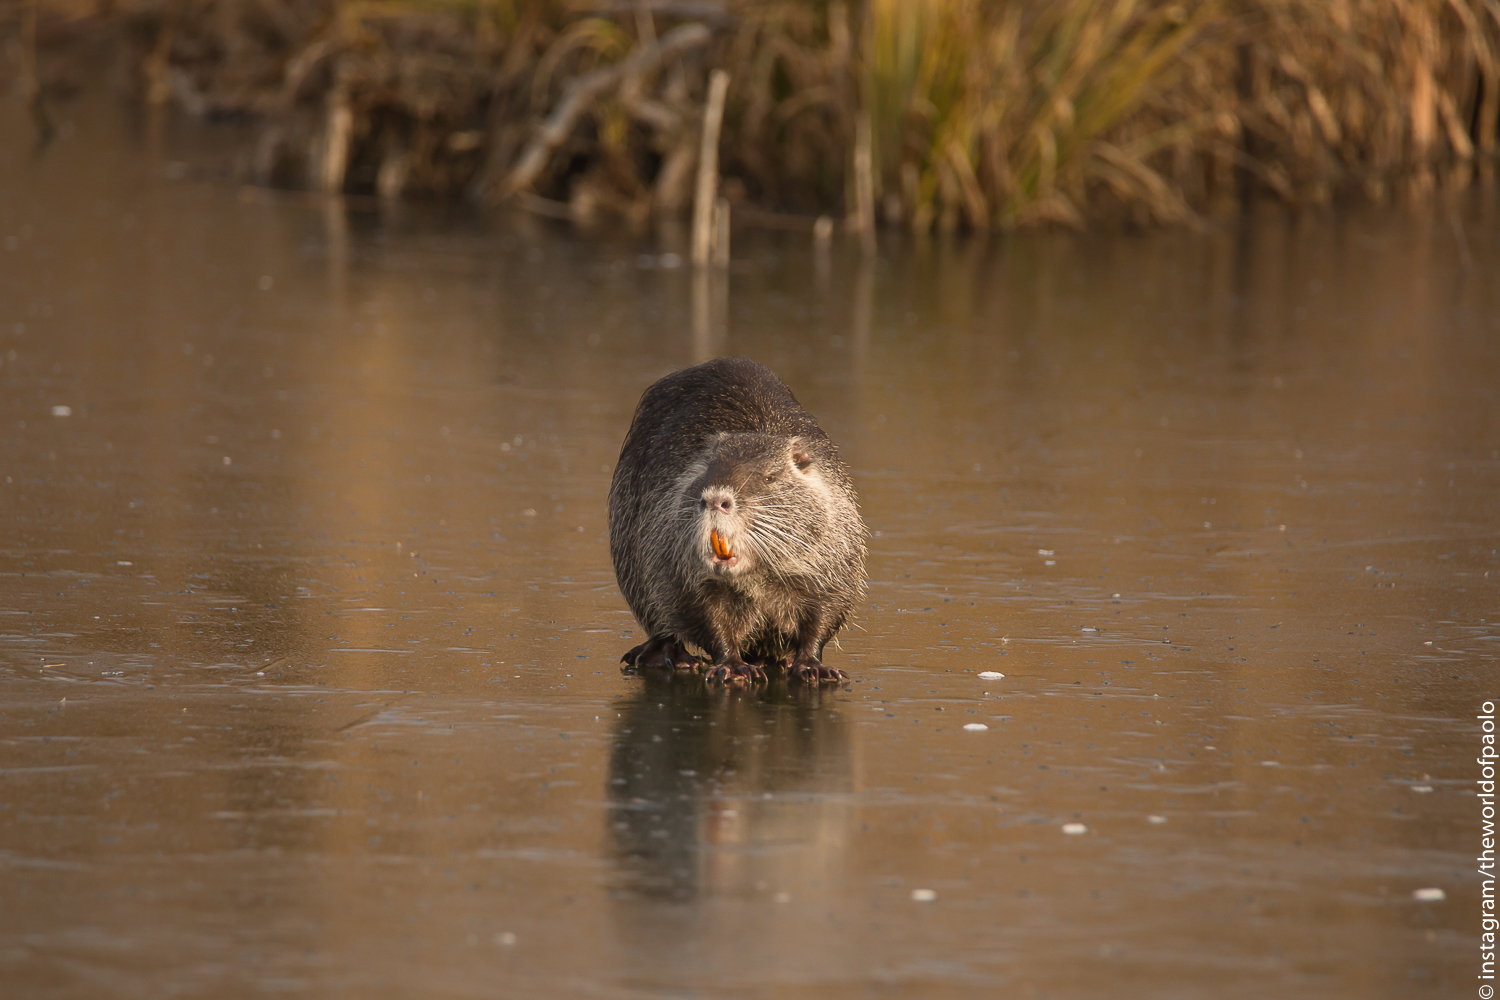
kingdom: Animalia
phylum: Chordata
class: Mammalia
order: Rodentia
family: Myocastoridae
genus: Myocastor
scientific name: Myocastor coypus
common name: Coypu
